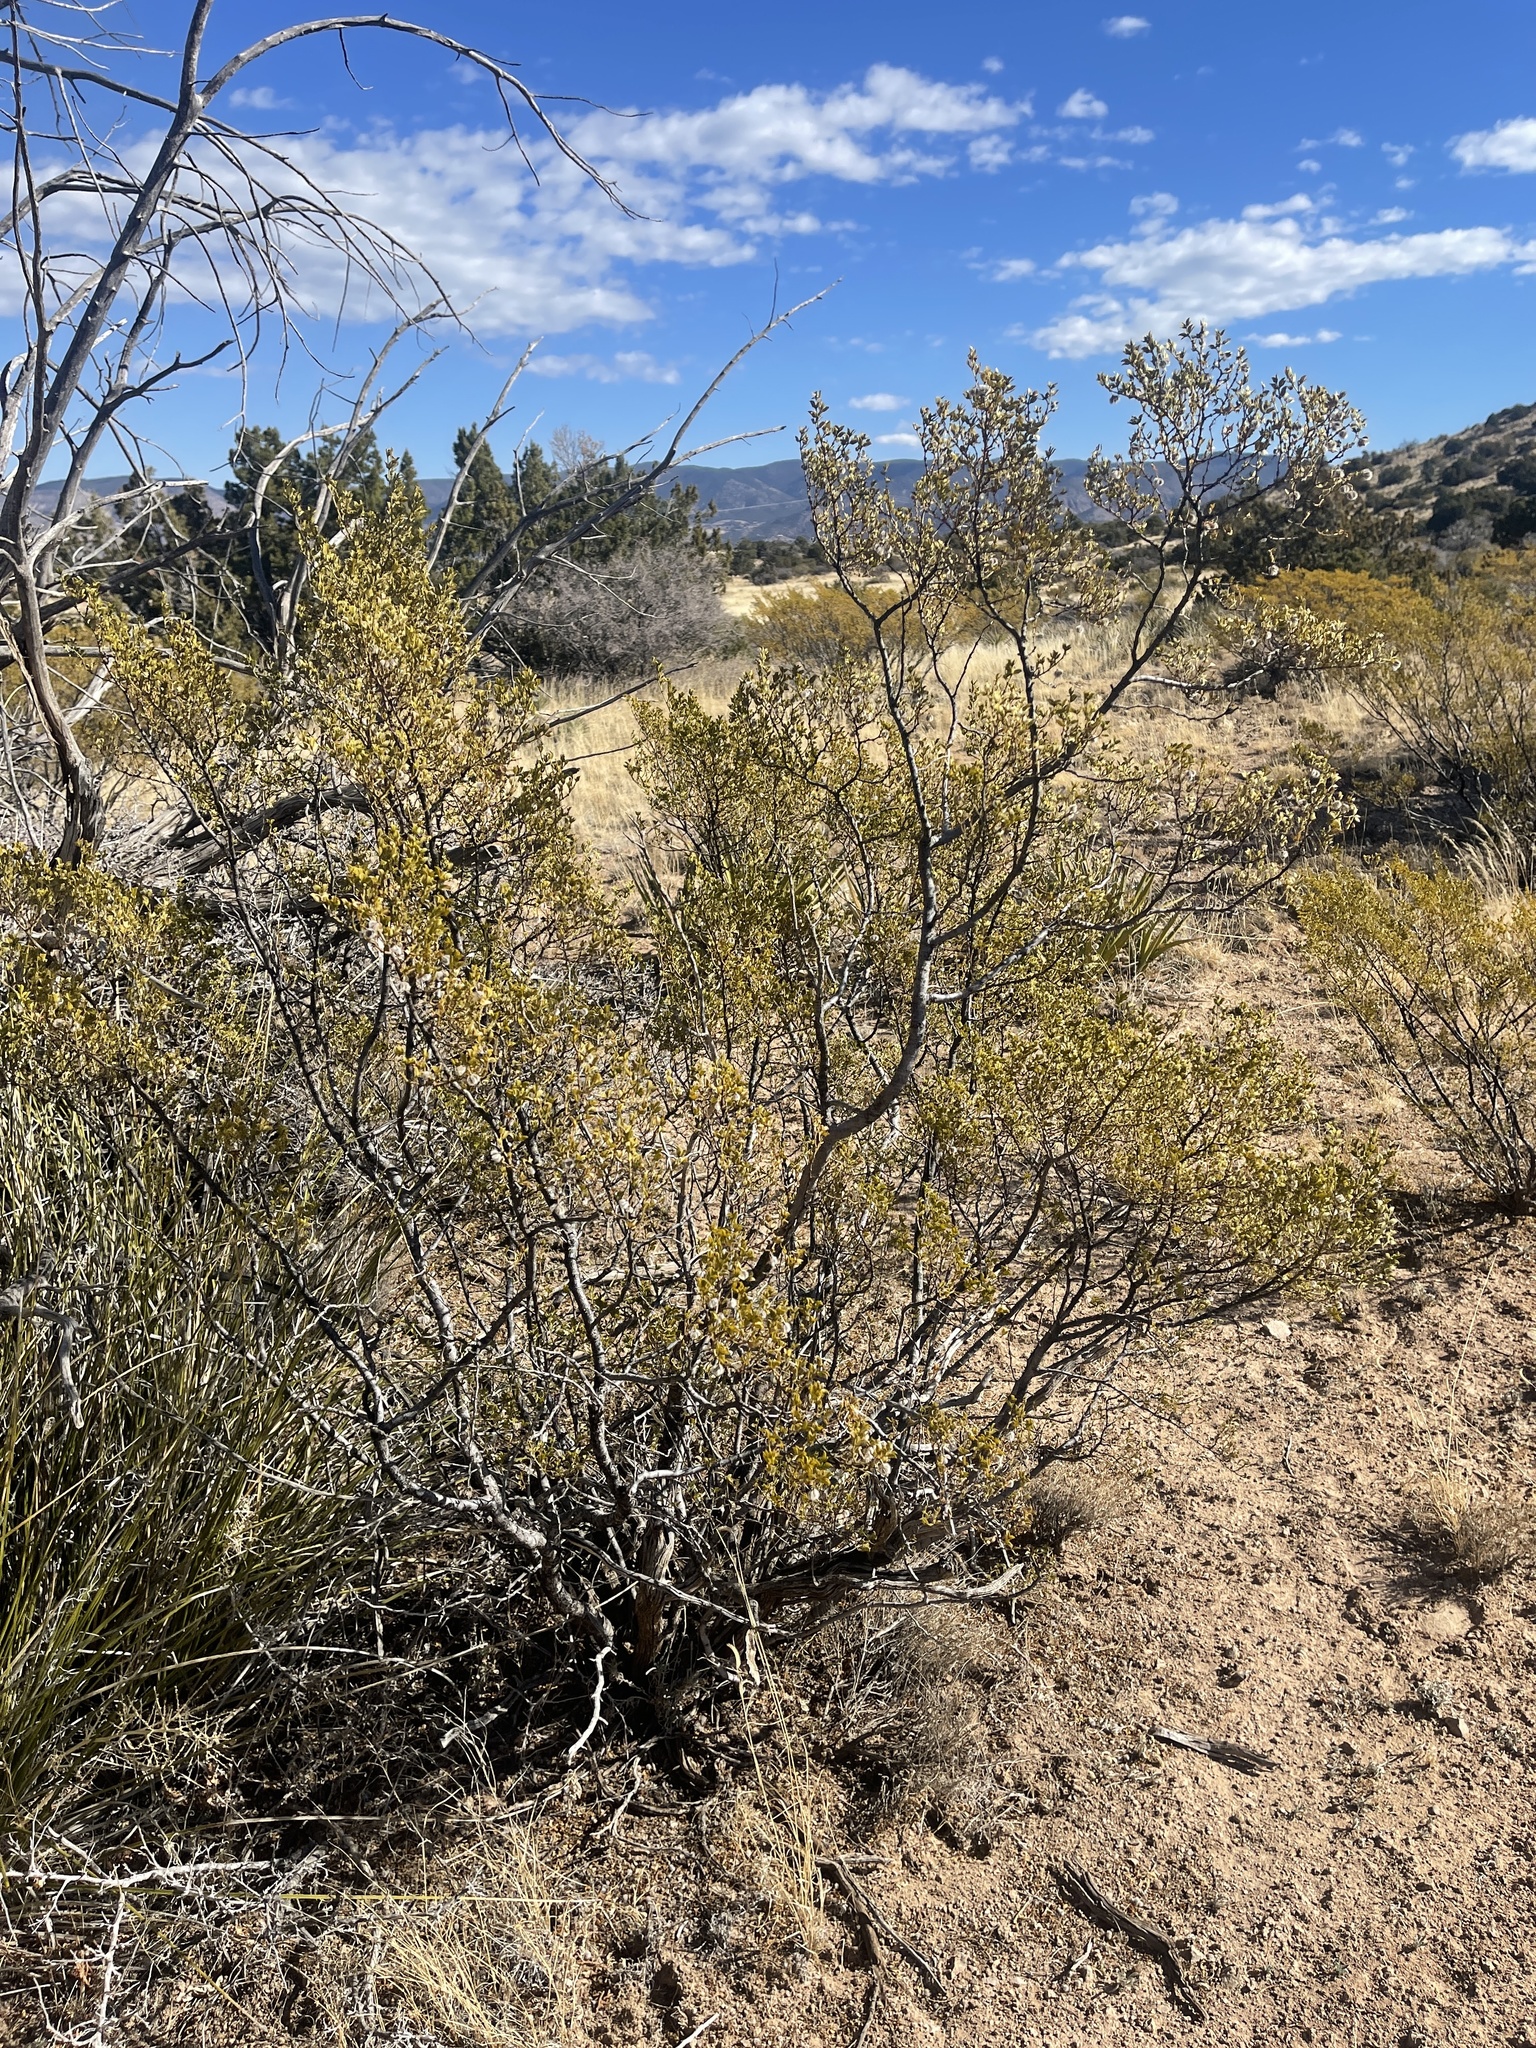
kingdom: Plantae
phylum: Tracheophyta
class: Magnoliopsida
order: Zygophyllales
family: Zygophyllaceae
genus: Larrea
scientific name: Larrea tridentata
